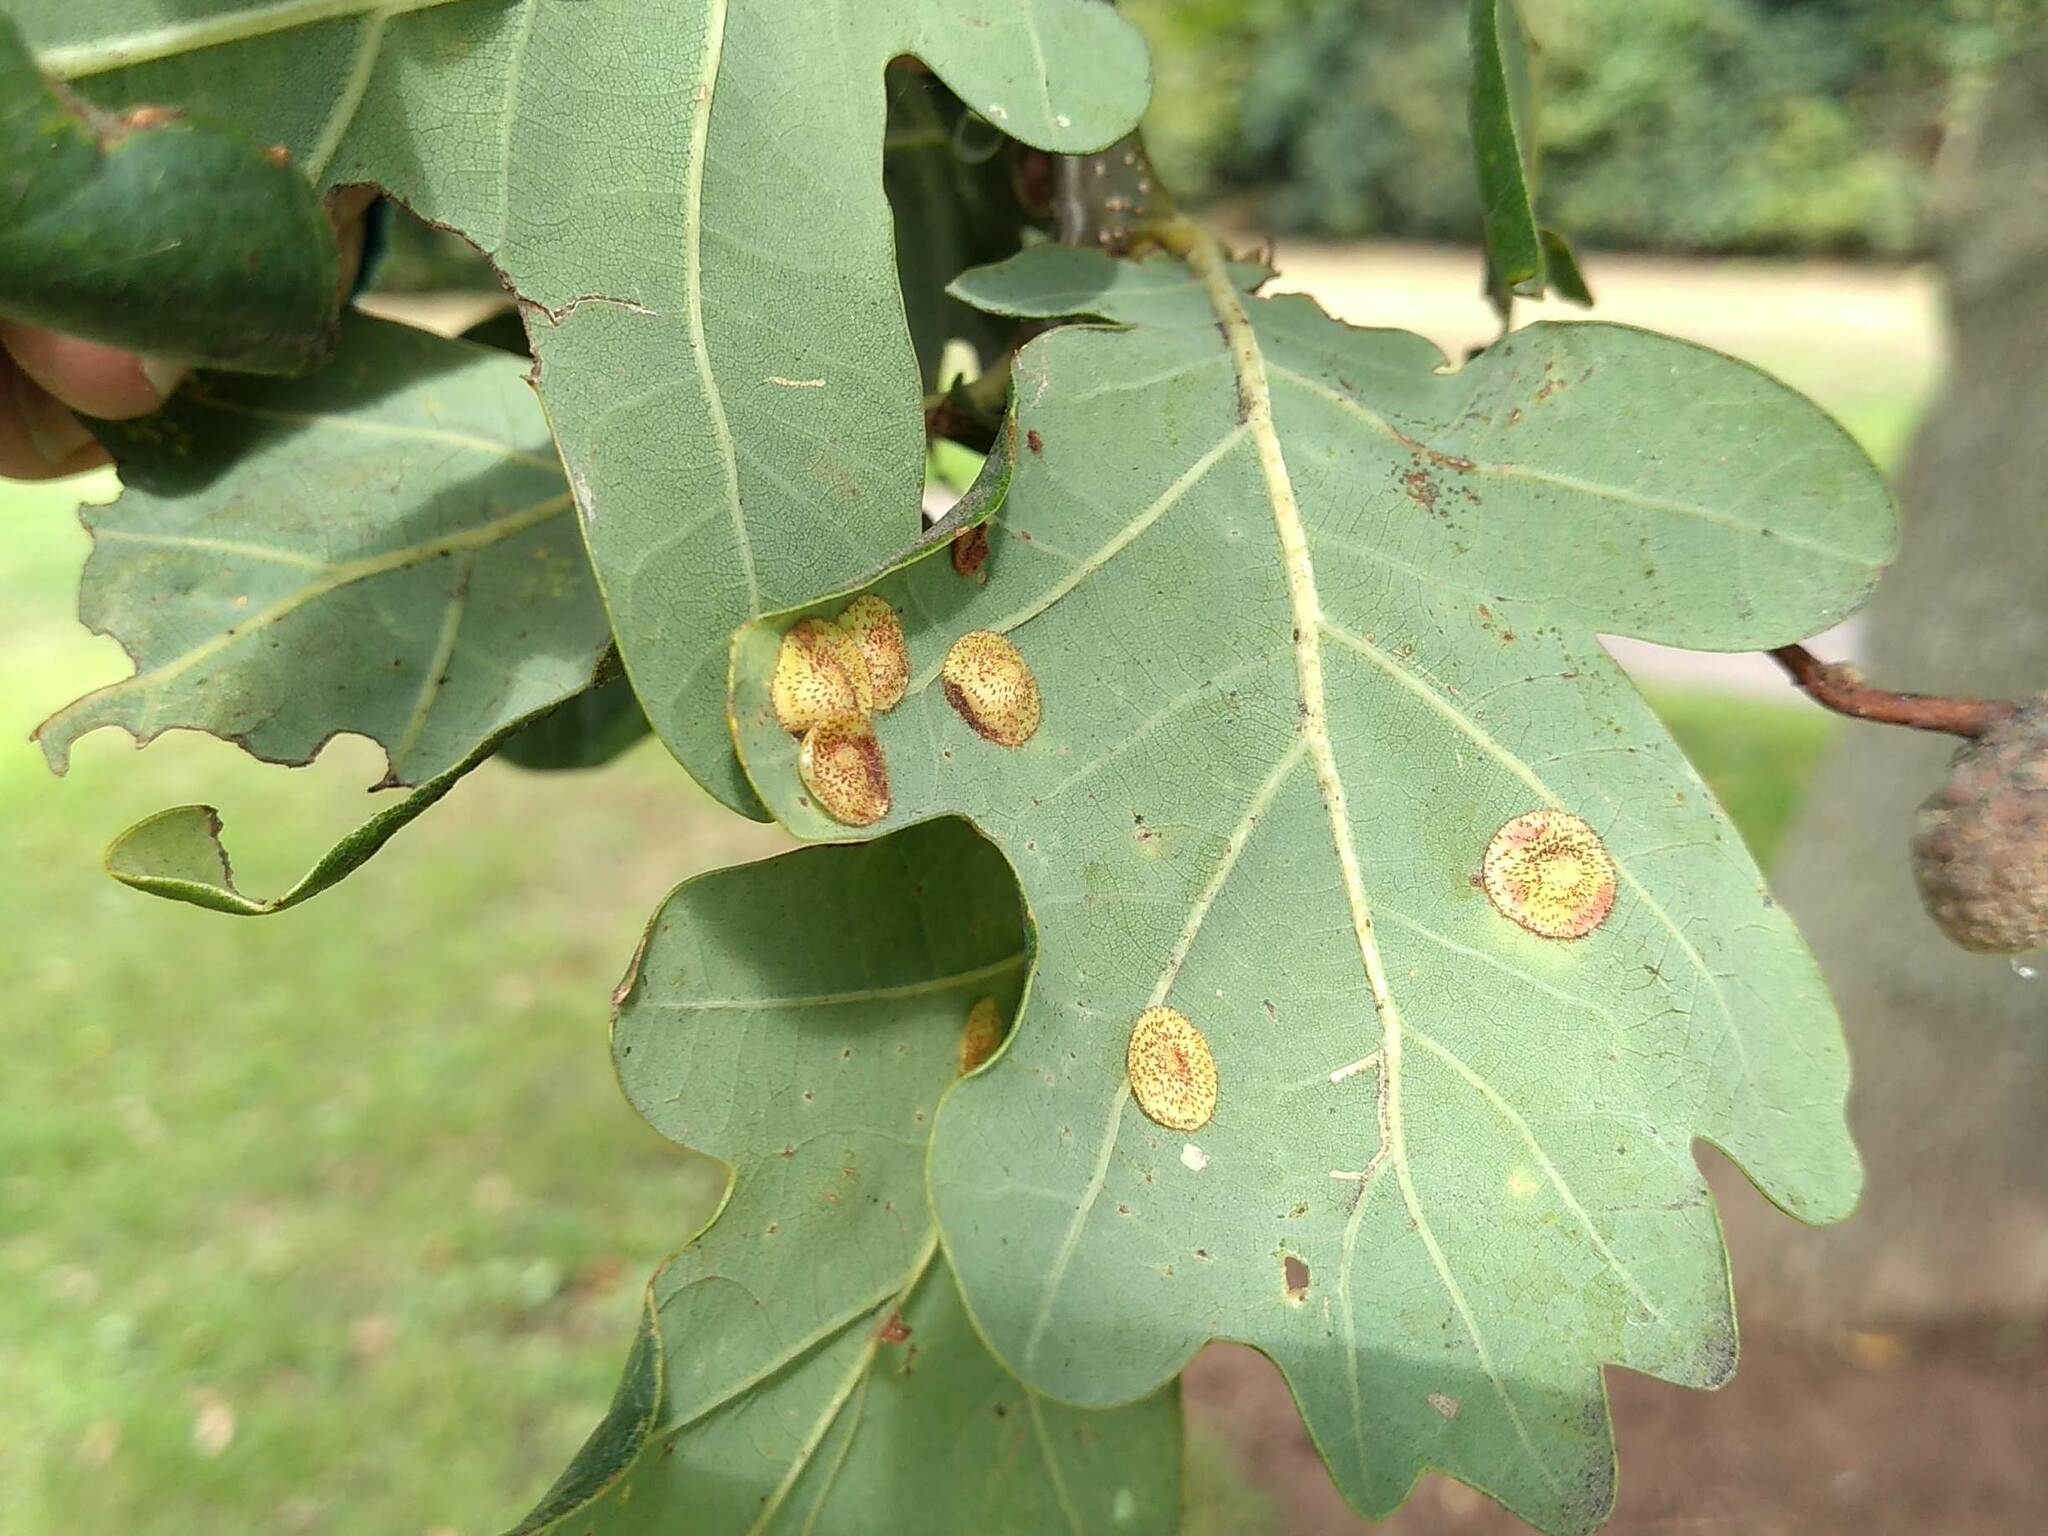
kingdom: Animalia
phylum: Arthropoda
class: Insecta
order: Hymenoptera
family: Cynipidae
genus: Neuroterus
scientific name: Neuroterus quercusbaccarum
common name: Common spangle gall
